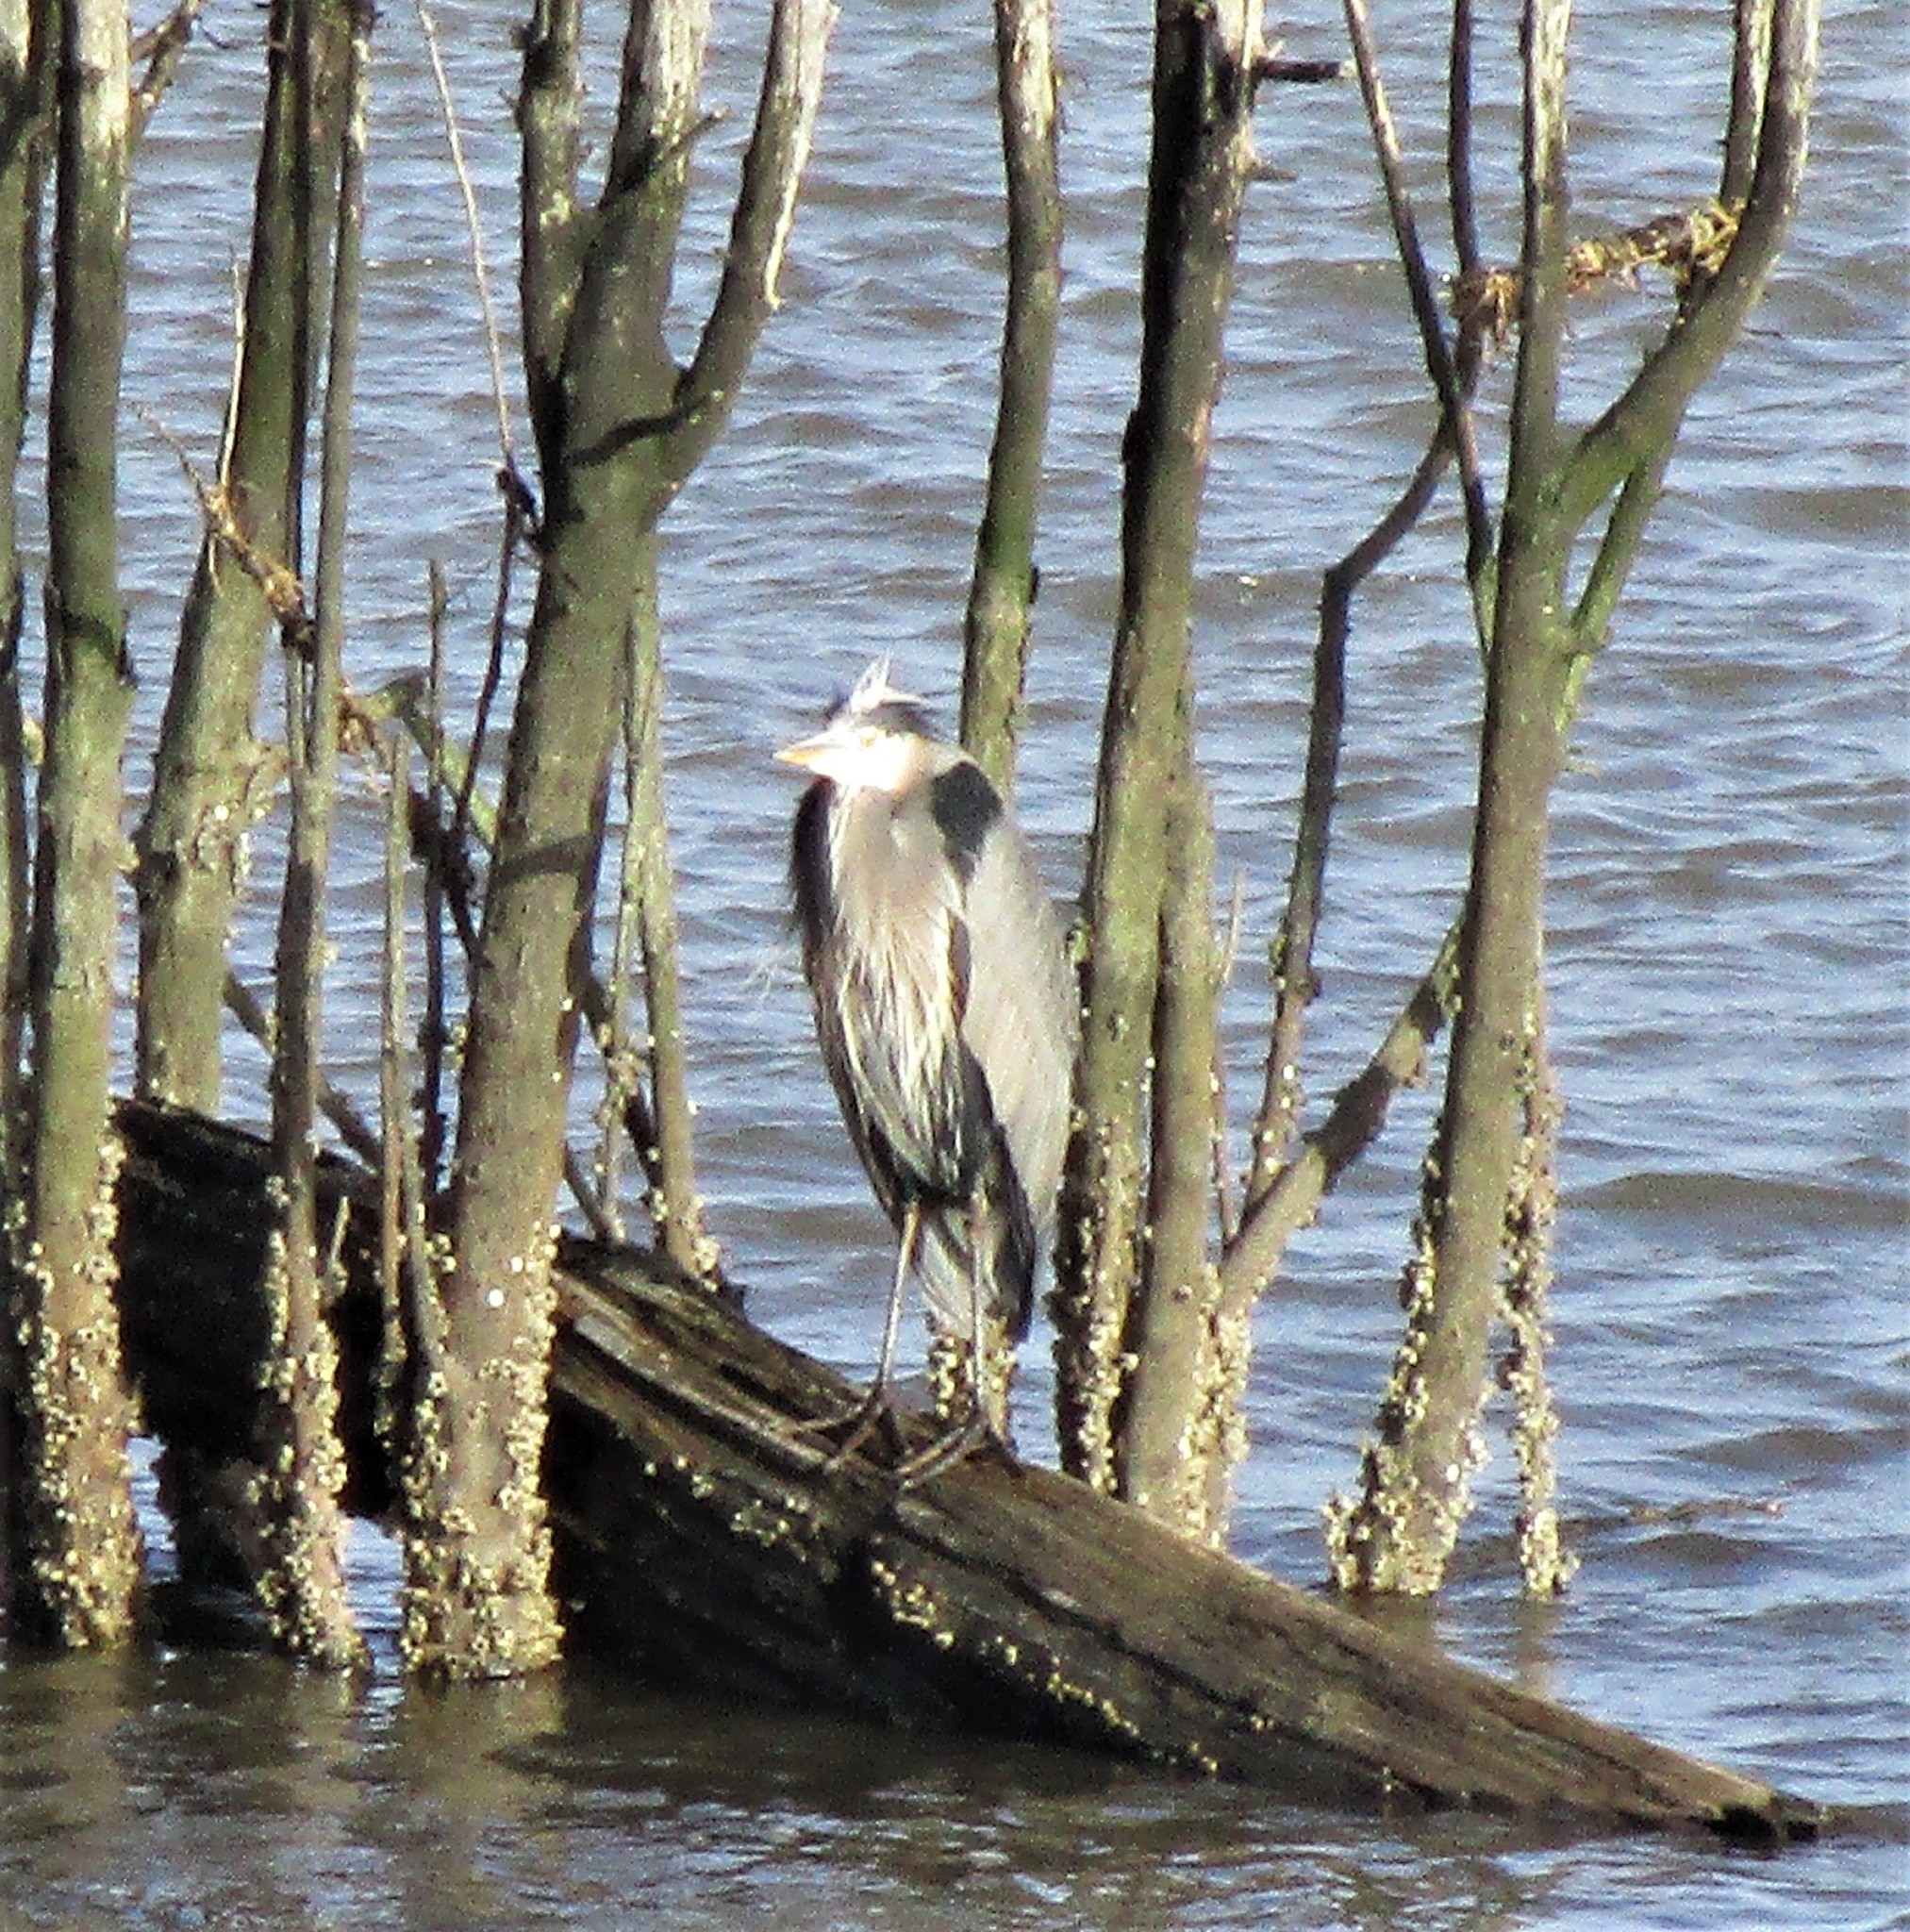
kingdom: Animalia
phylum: Chordata
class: Aves
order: Pelecaniformes
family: Ardeidae
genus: Ardea
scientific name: Ardea herodias
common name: Great blue heron
